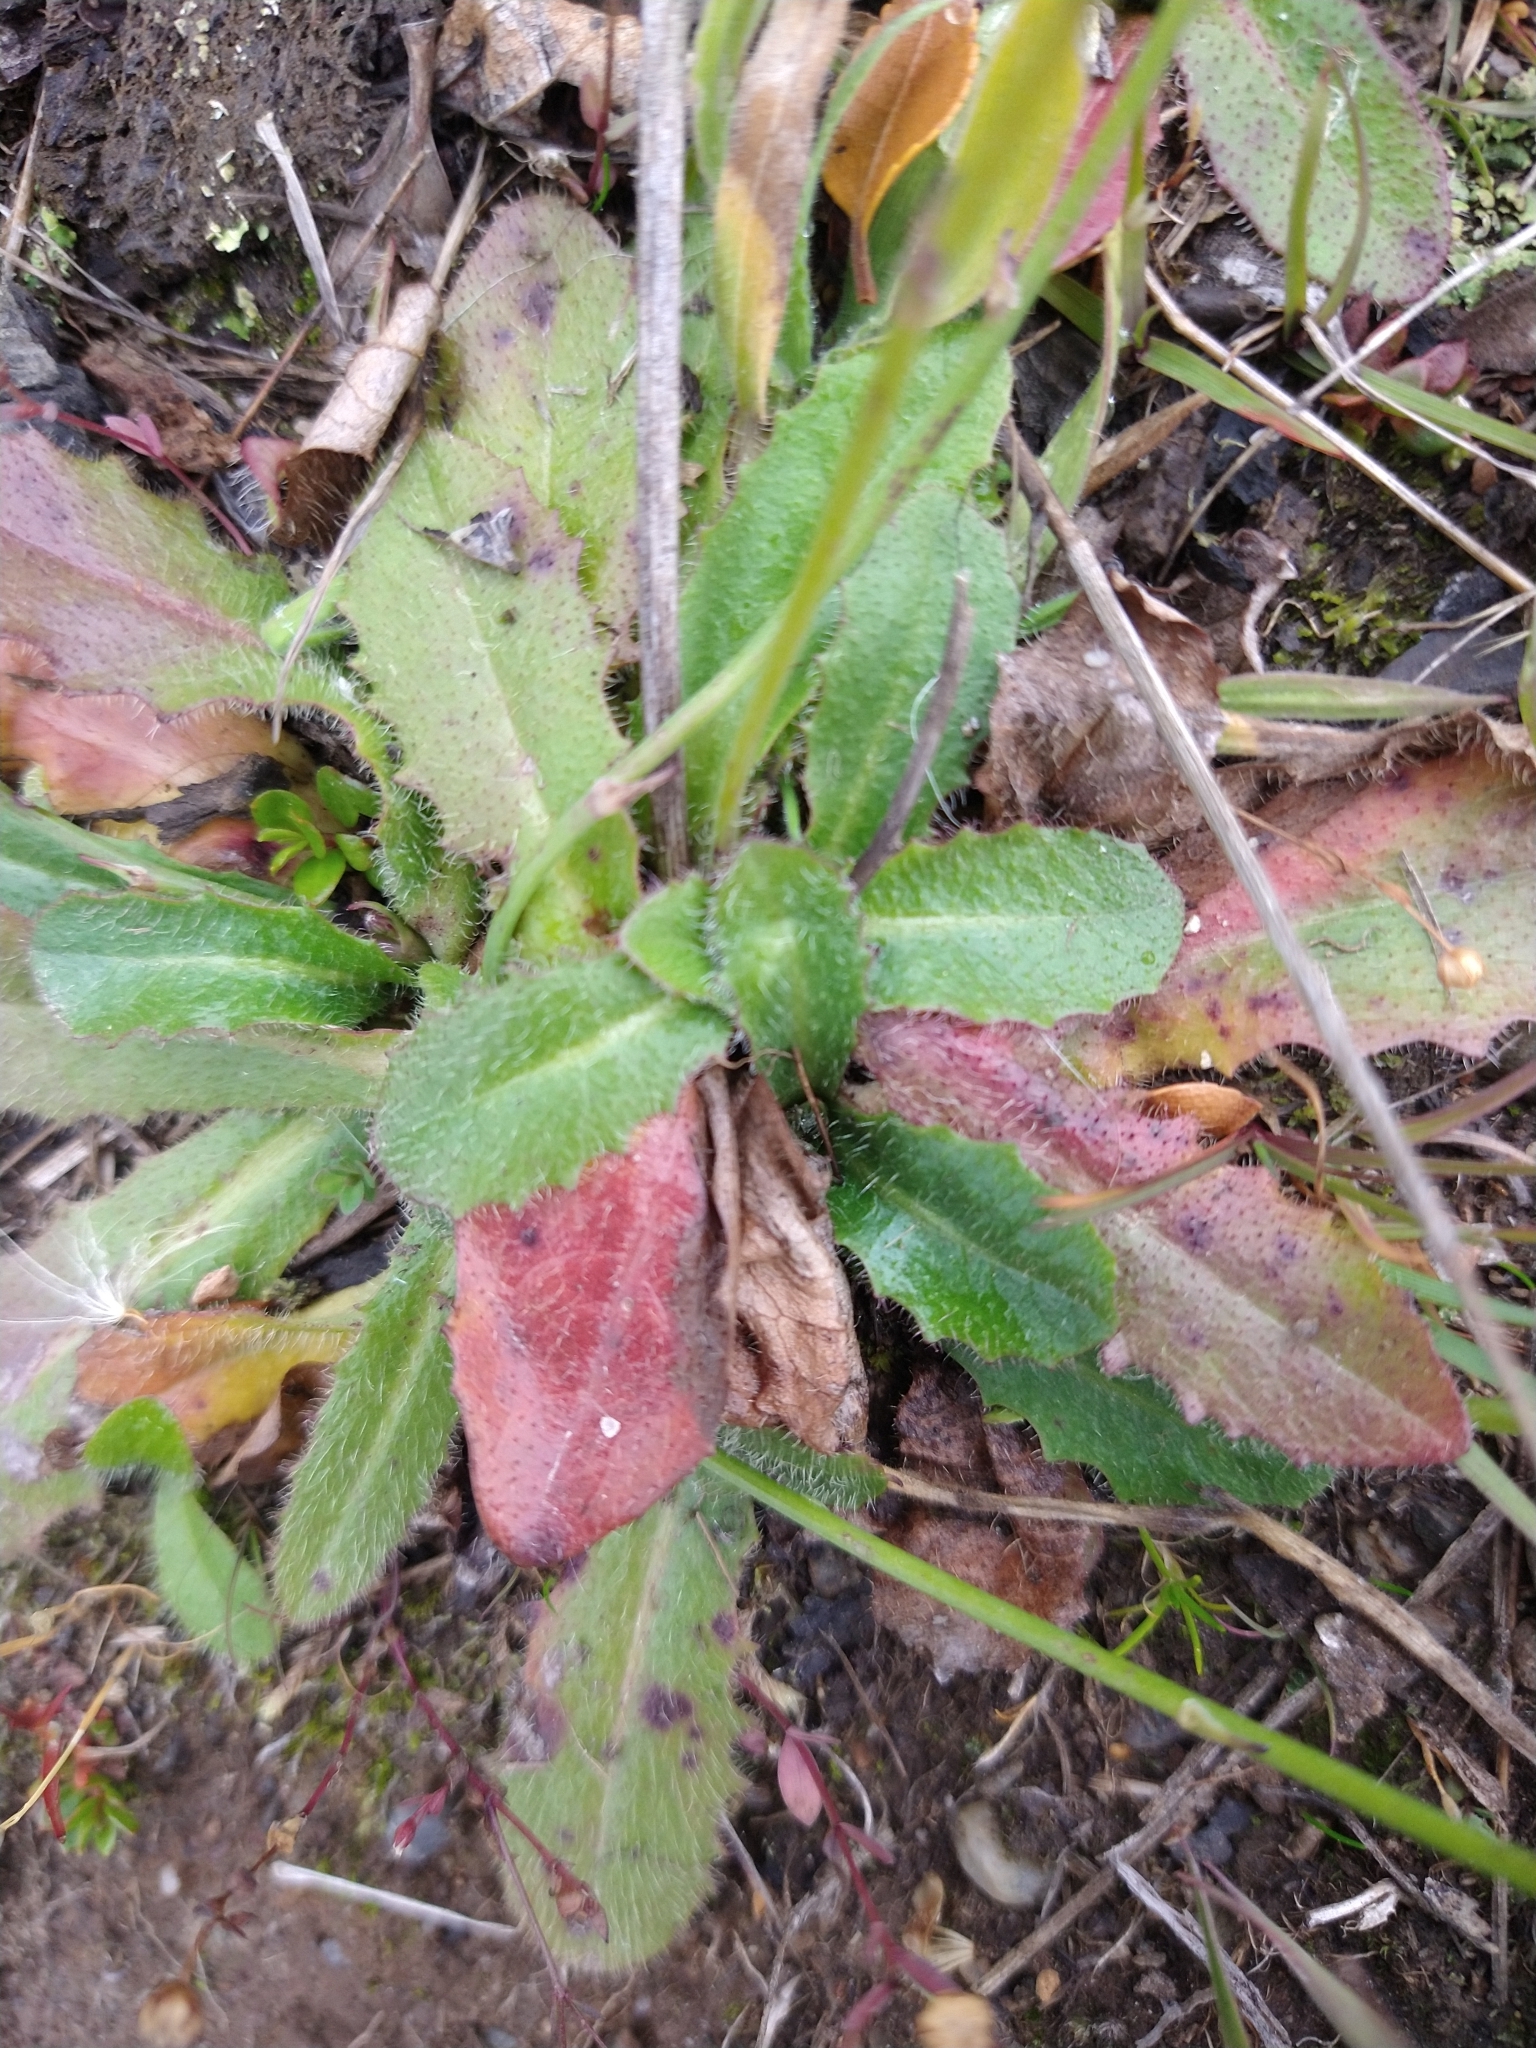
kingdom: Plantae
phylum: Tracheophyta
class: Magnoliopsida
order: Asterales
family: Asteraceae
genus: Hypochaeris
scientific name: Hypochaeris radicata
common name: Flatweed
